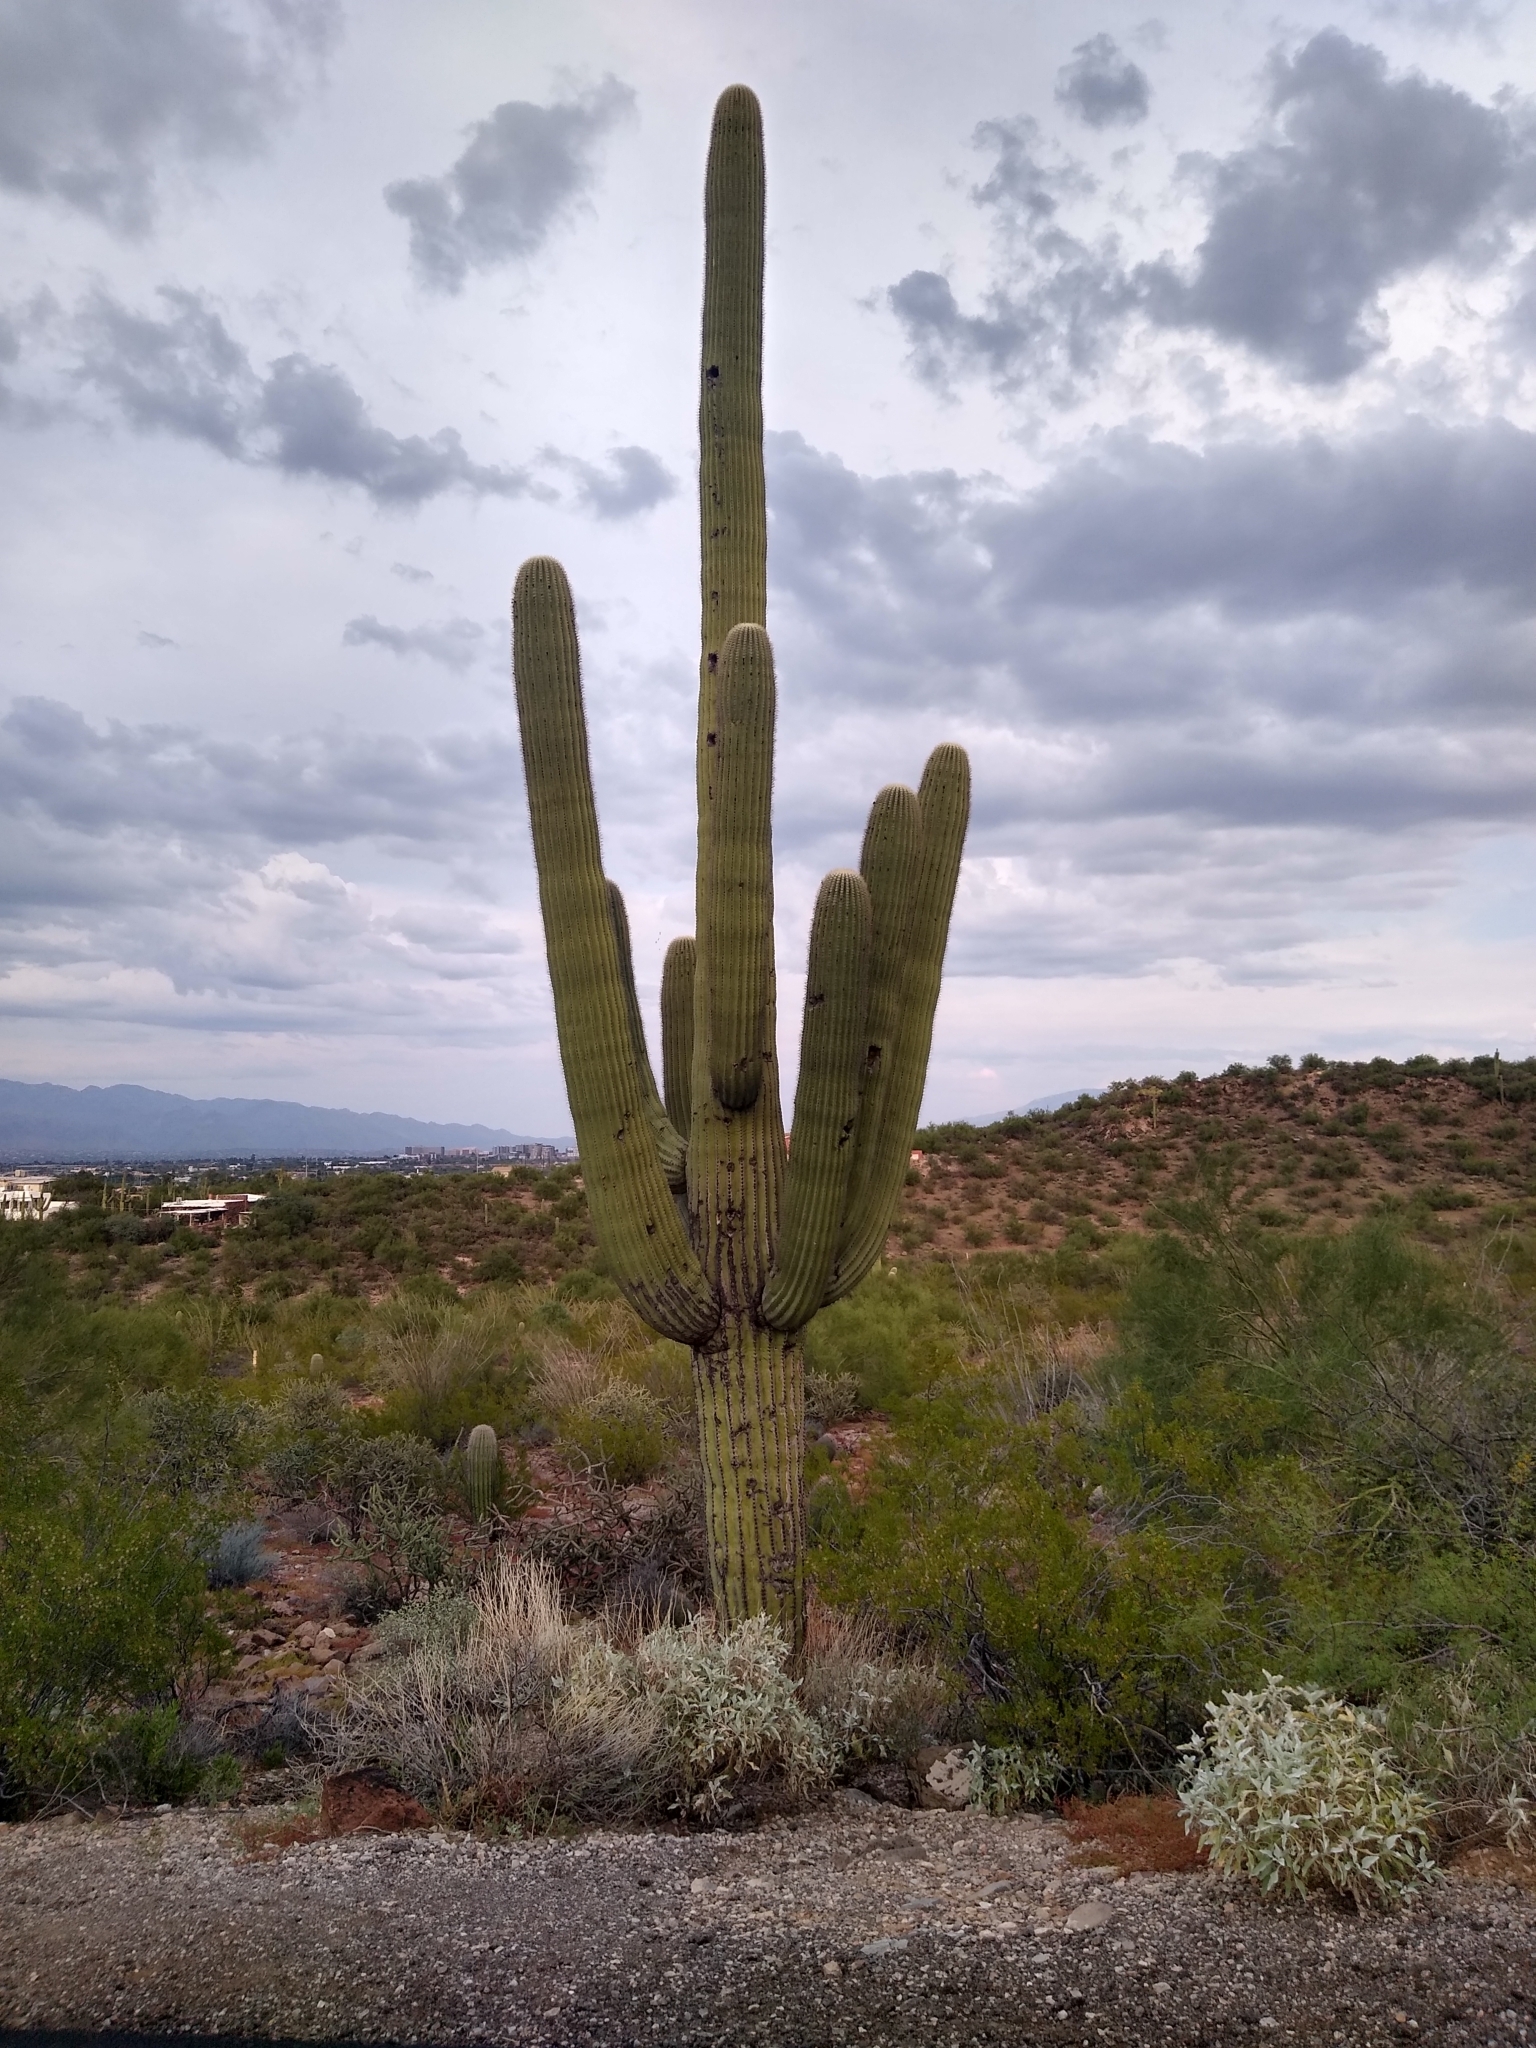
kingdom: Plantae
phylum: Tracheophyta
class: Magnoliopsida
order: Caryophyllales
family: Cactaceae
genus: Carnegiea
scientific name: Carnegiea gigantea
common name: Saguaro
